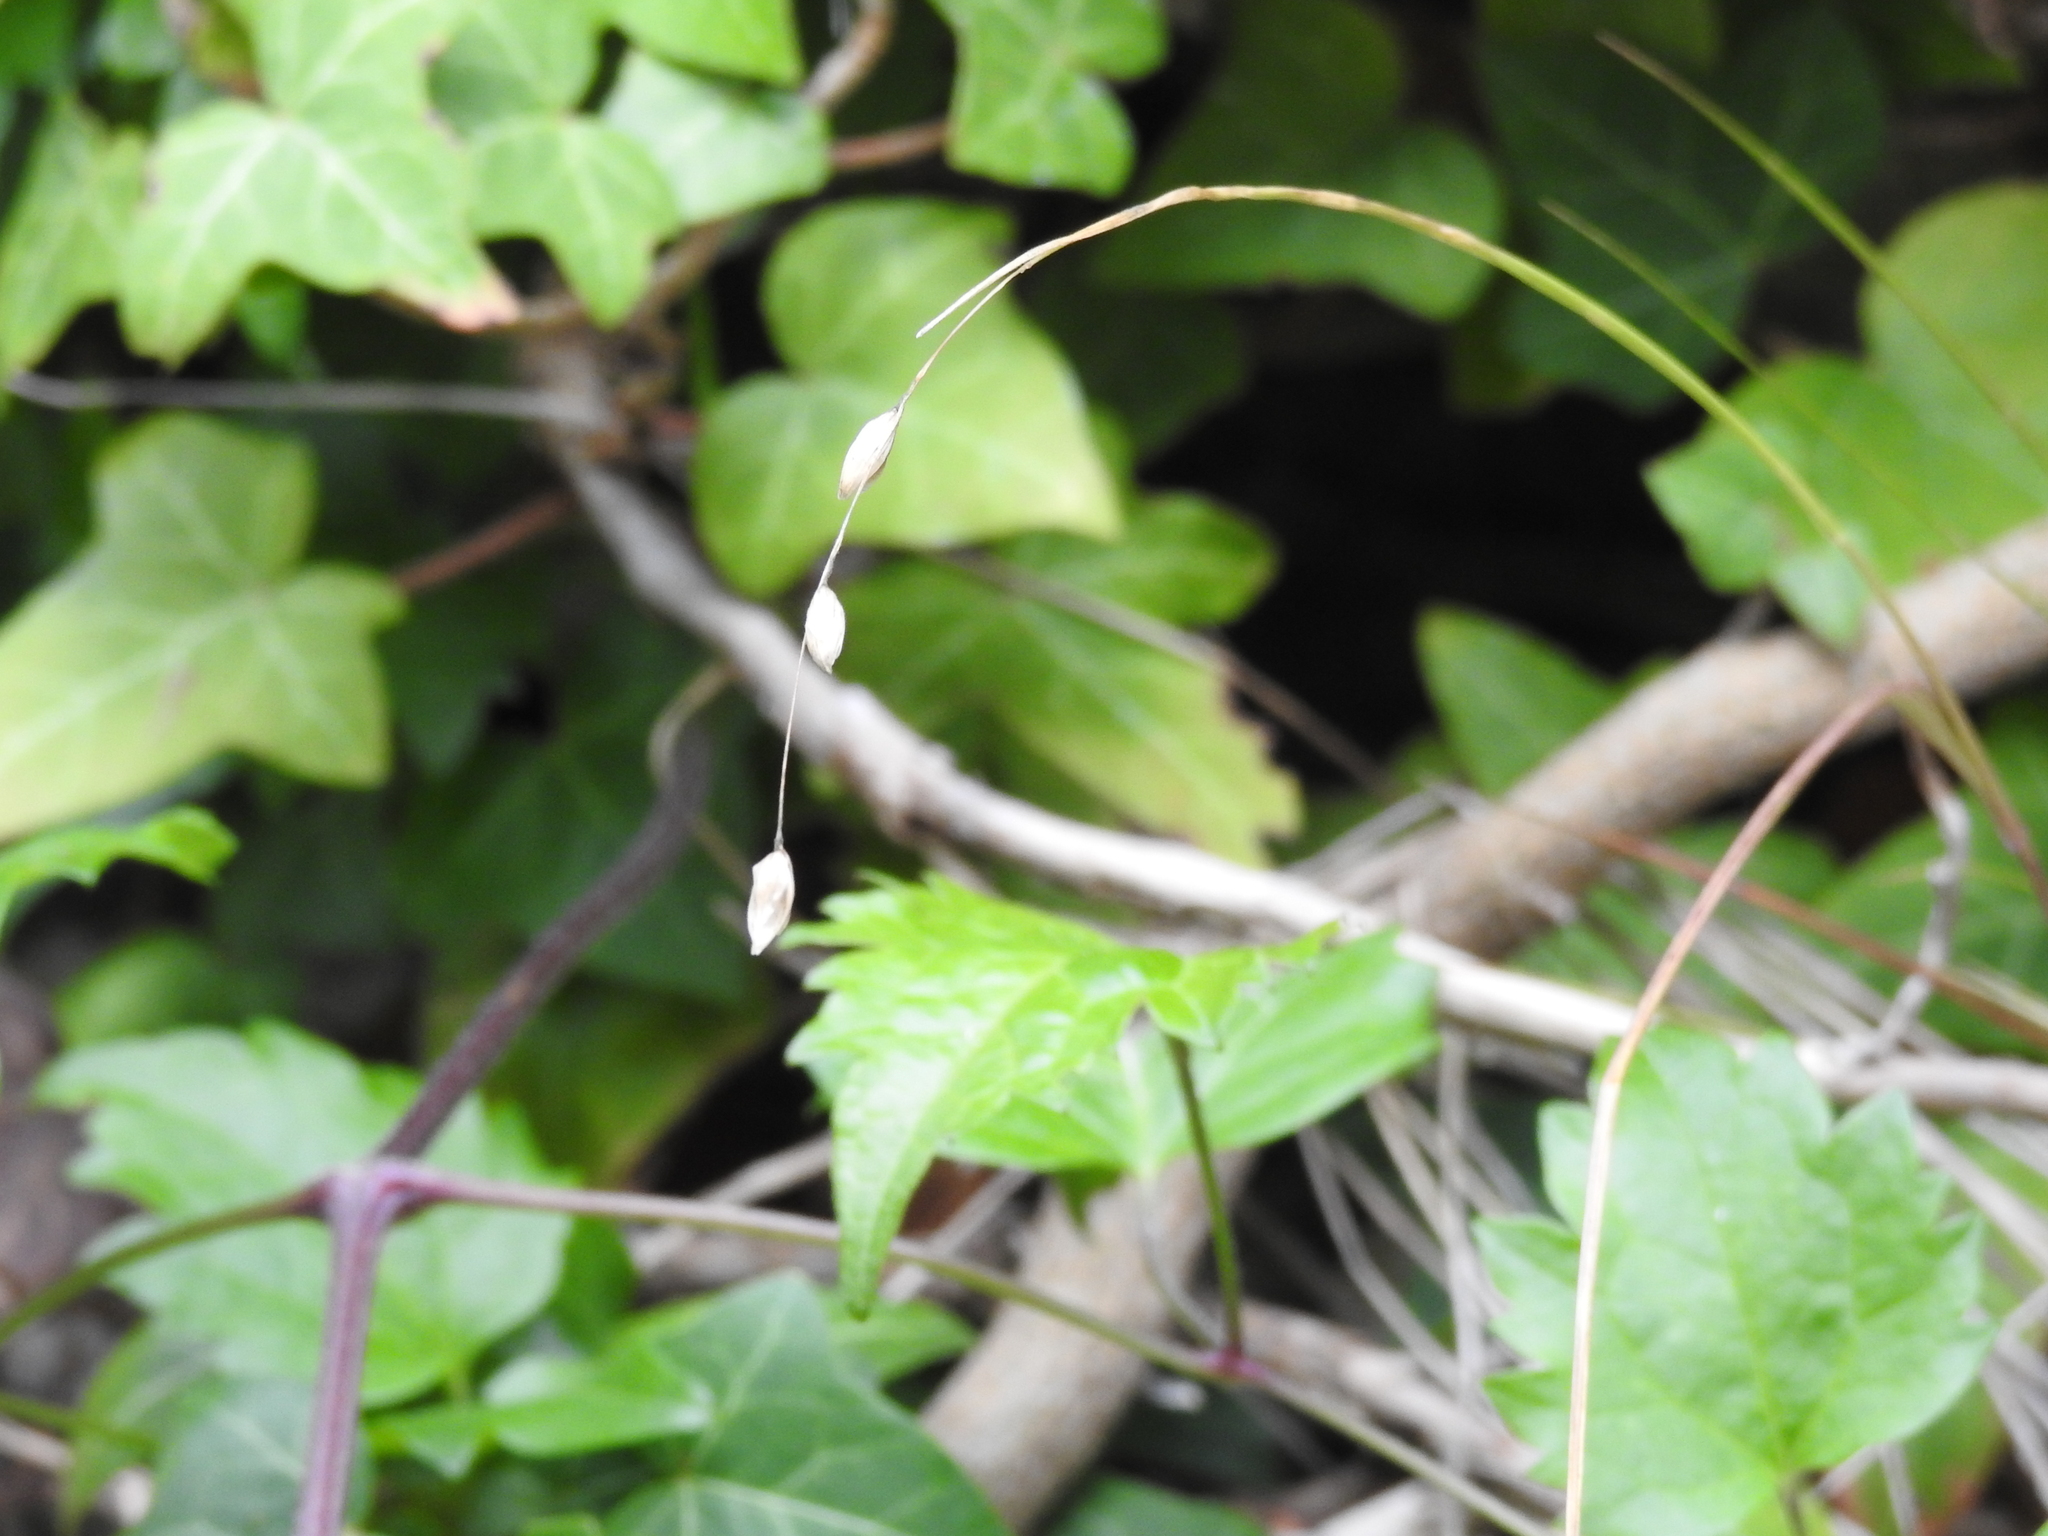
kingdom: Plantae
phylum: Tracheophyta
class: Liliopsida
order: Poales
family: Poaceae
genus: Melica
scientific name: Melica nutans
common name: Mountain melick
